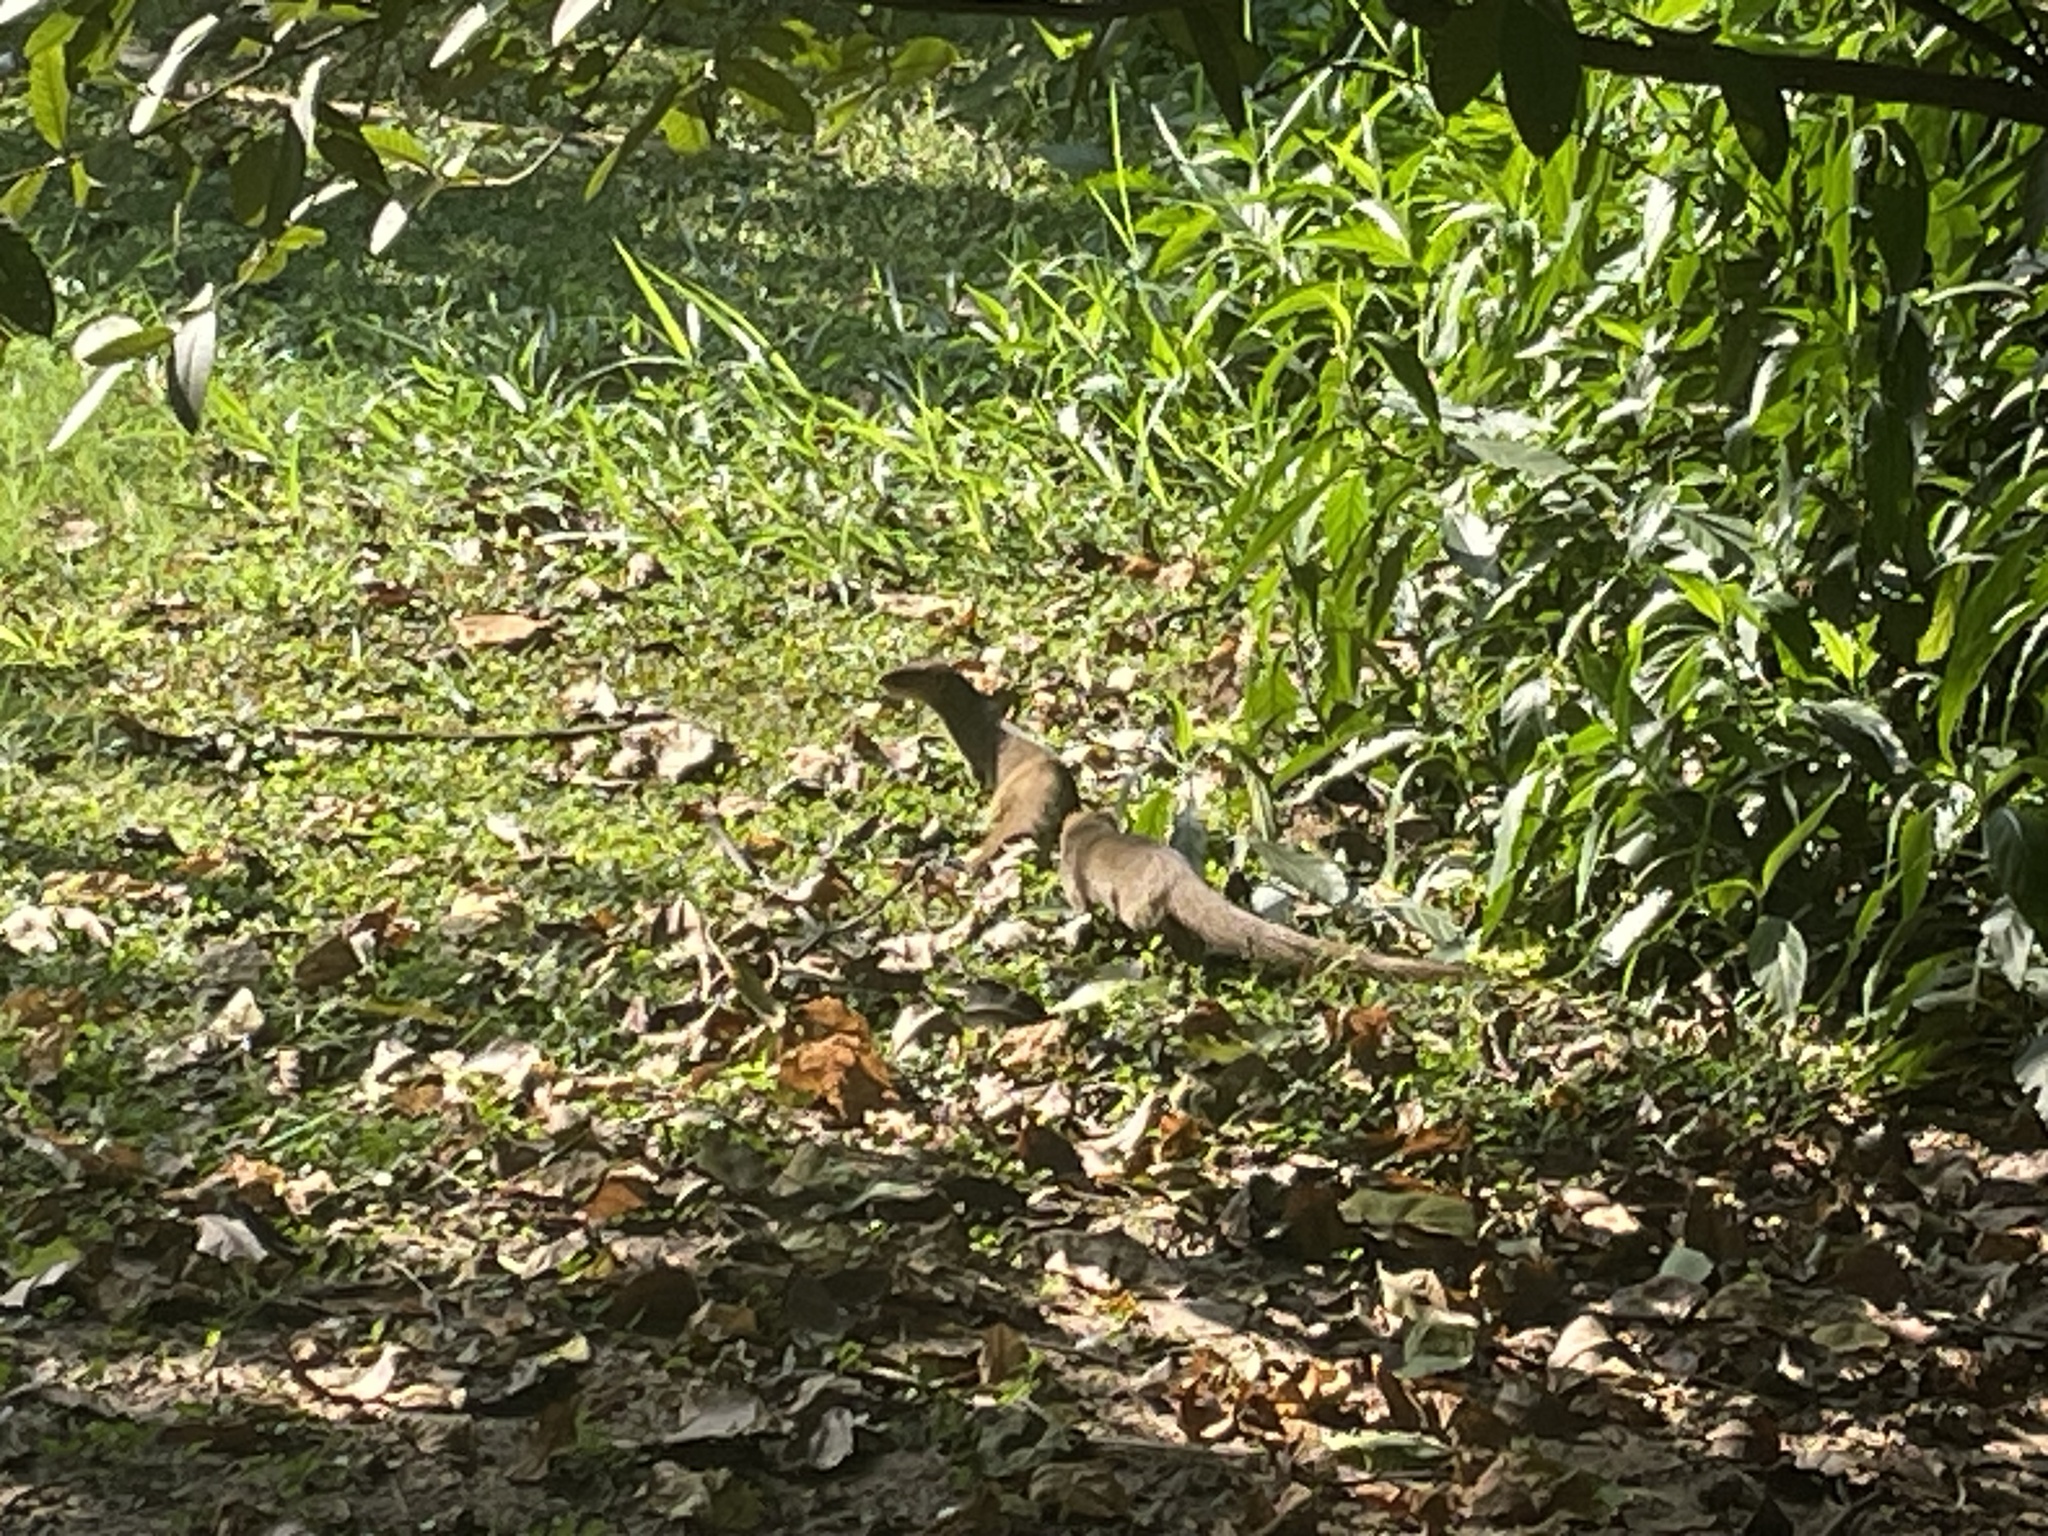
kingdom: Animalia
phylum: Chordata
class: Mammalia
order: Carnivora
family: Herpestidae
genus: Herpestes
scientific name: Herpestes edwardsi
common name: Indian gray mongoose
